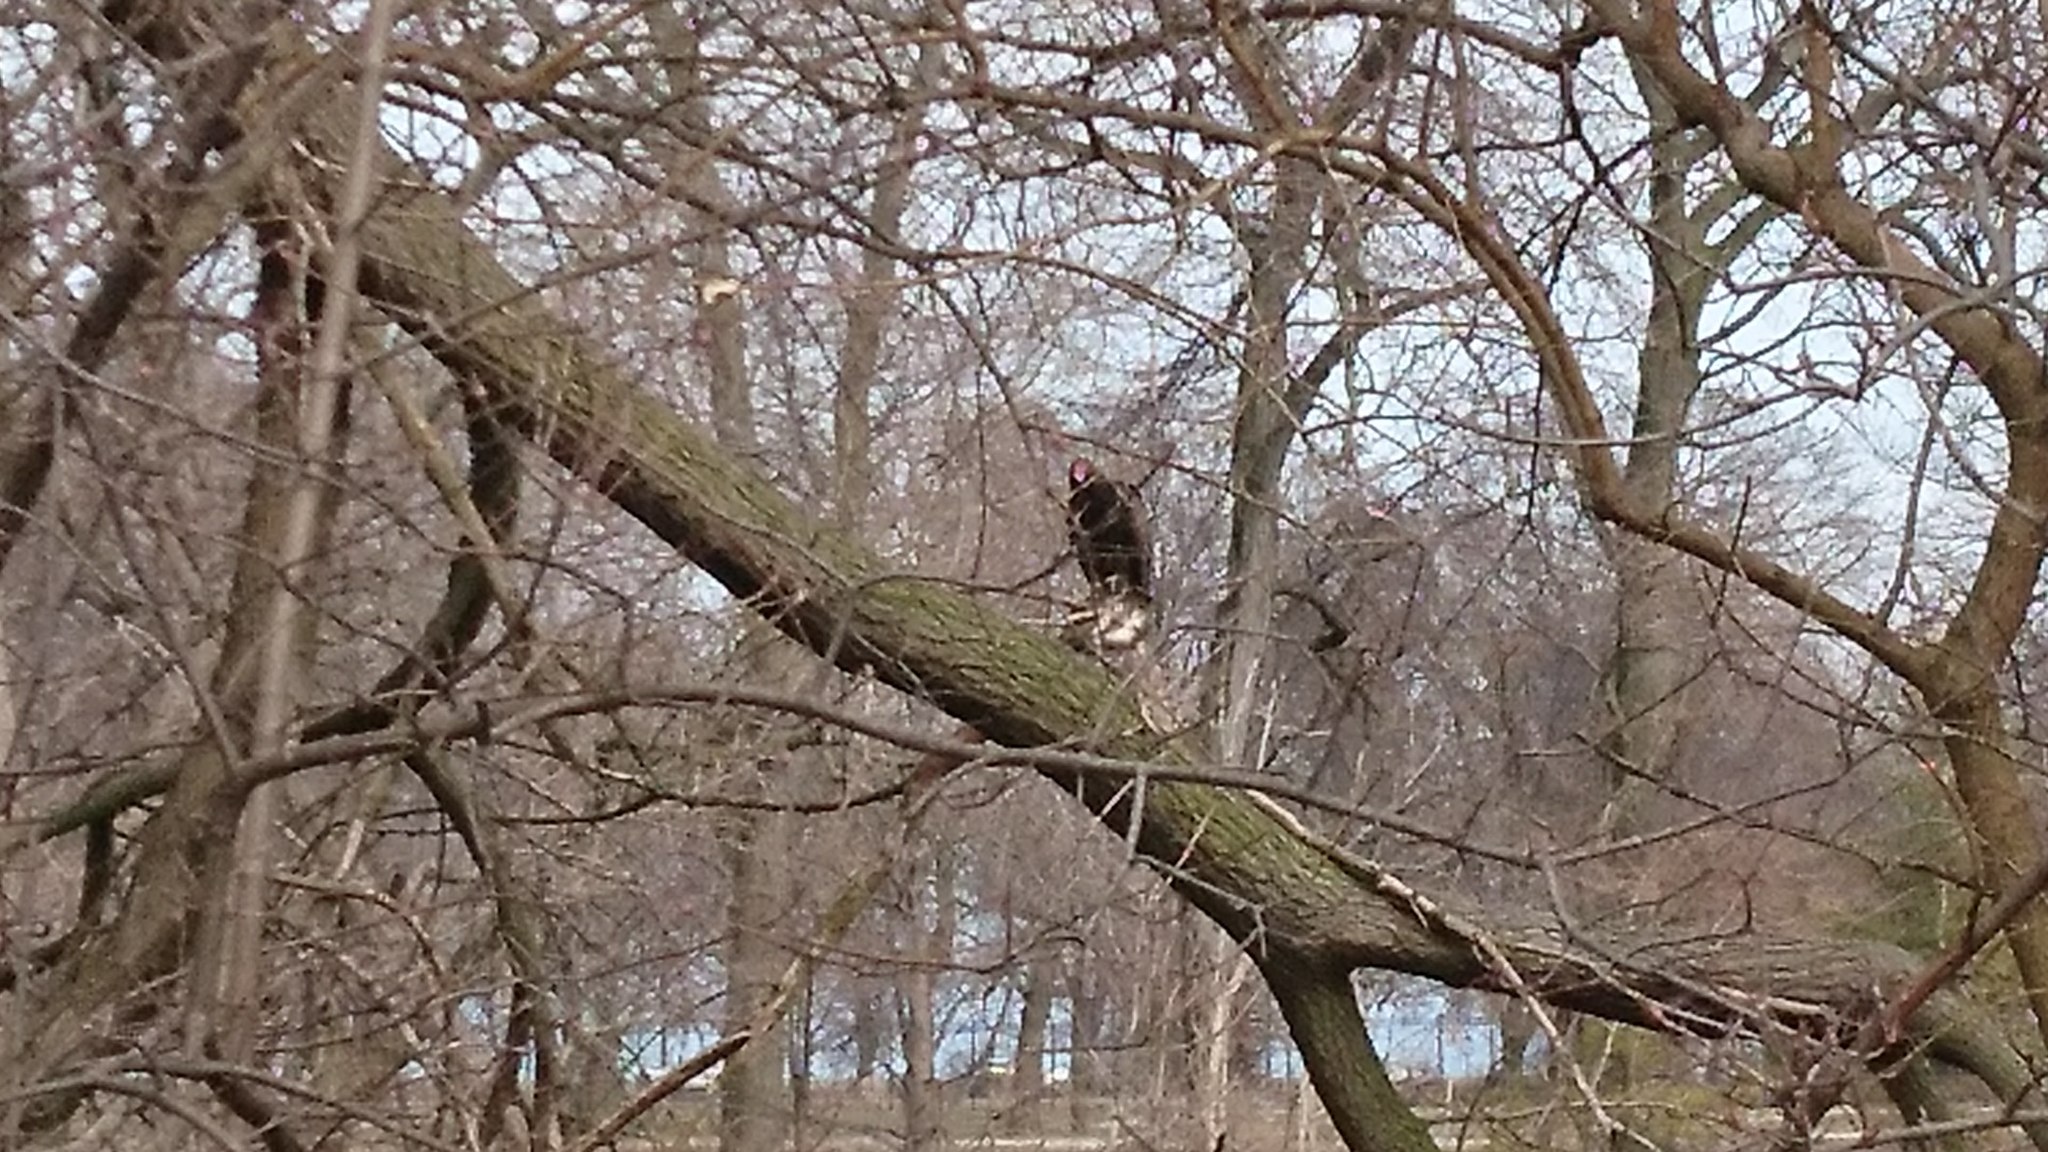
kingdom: Animalia
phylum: Chordata
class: Aves
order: Accipitriformes
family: Cathartidae
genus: Cathartes
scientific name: Cathartes aura
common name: Turkey vulture
